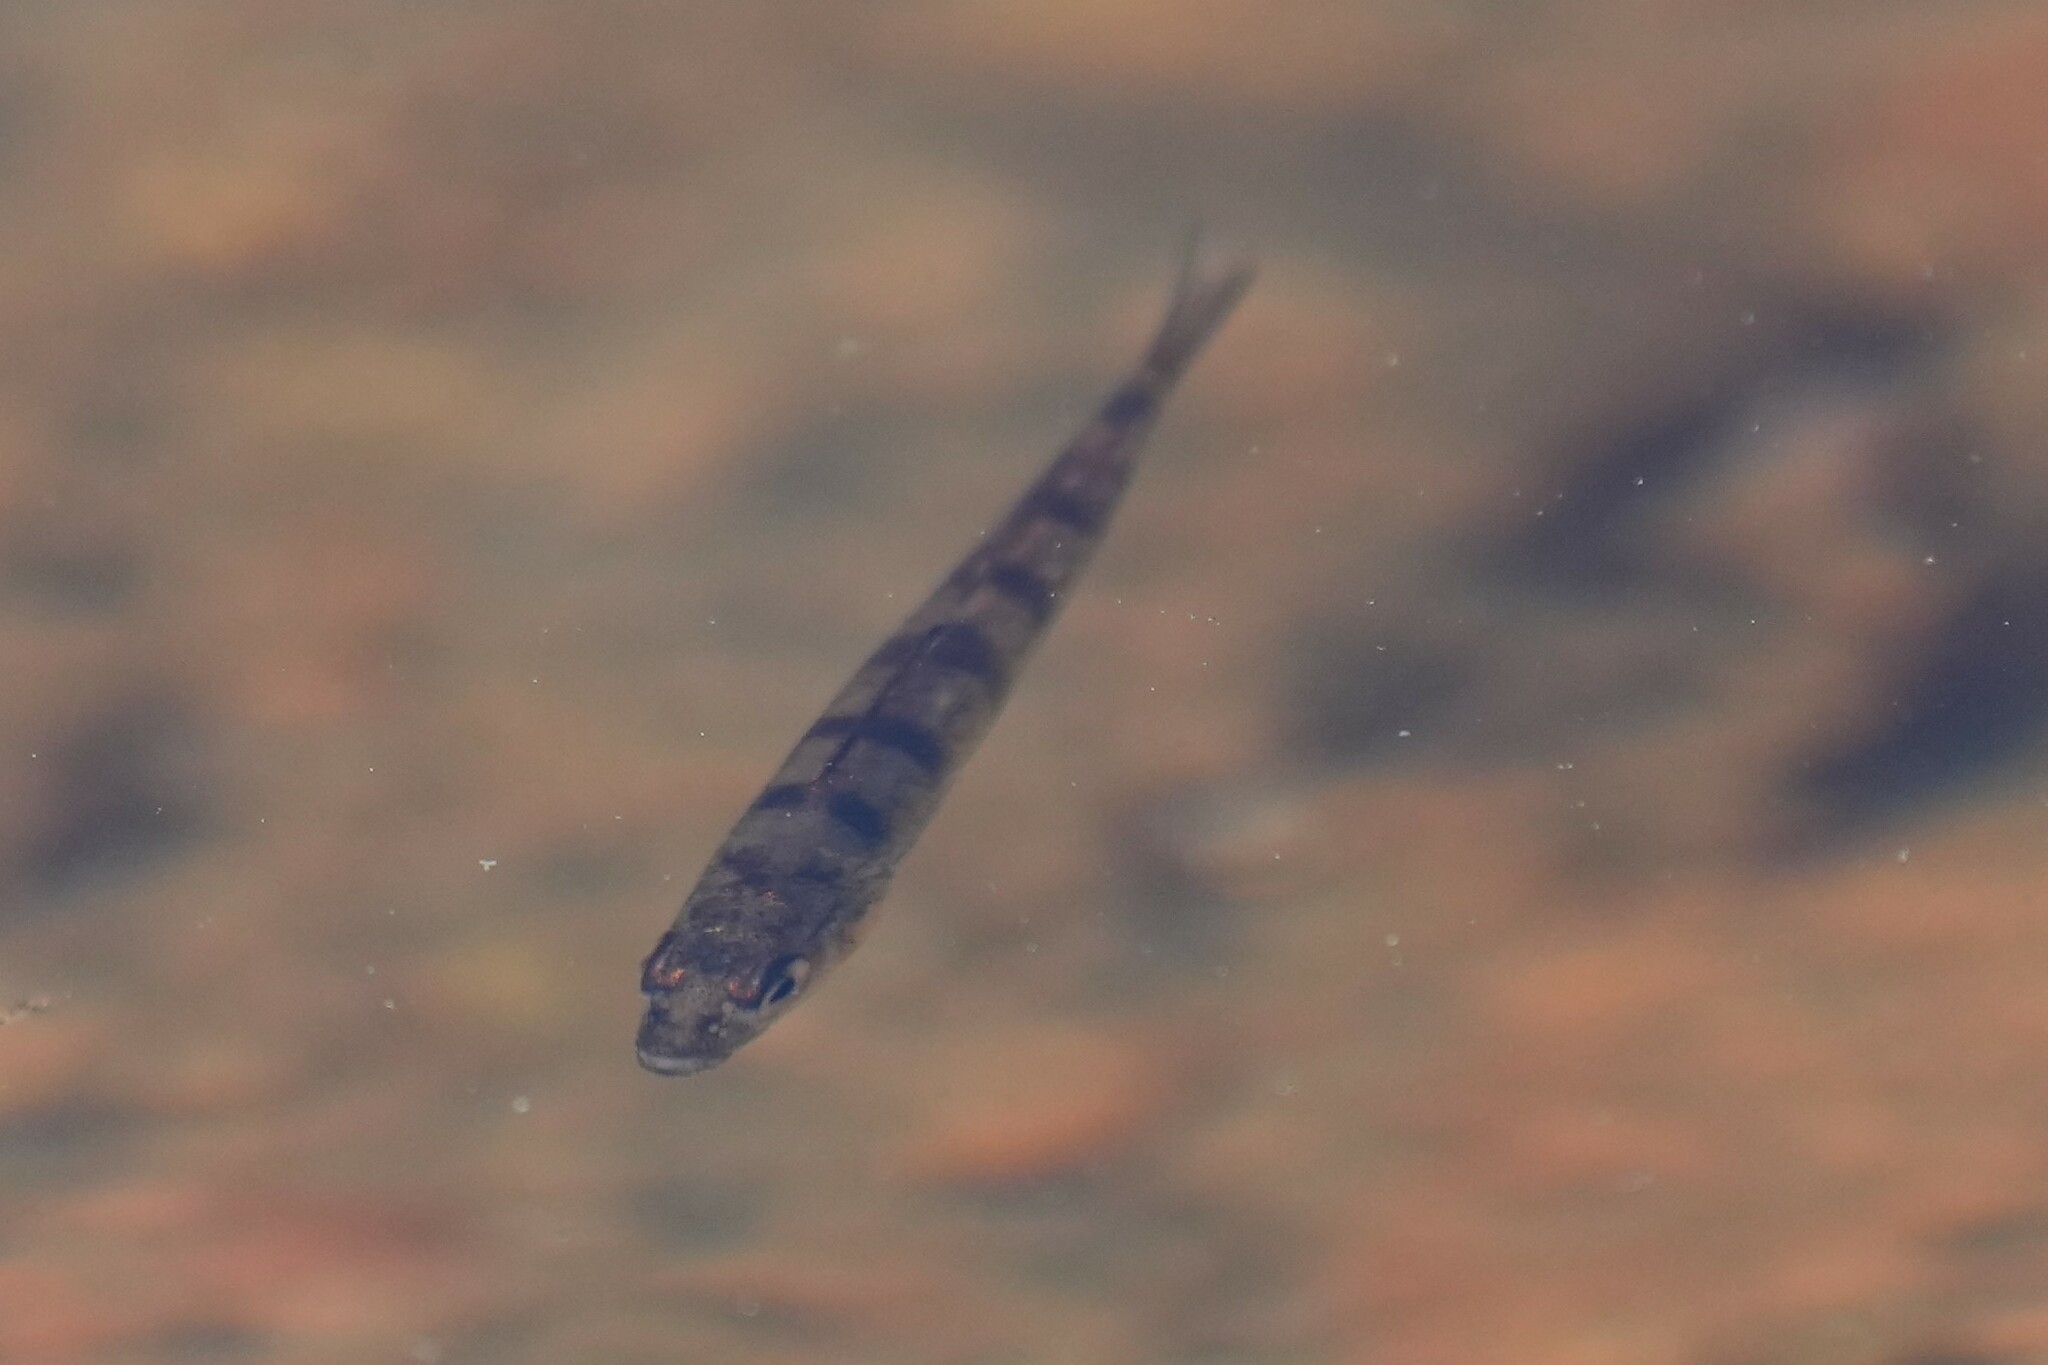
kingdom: Animalia
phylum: Chordata
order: Perciformes
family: Percidae
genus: Perca
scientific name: Perca flavescens
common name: Yellow perch
